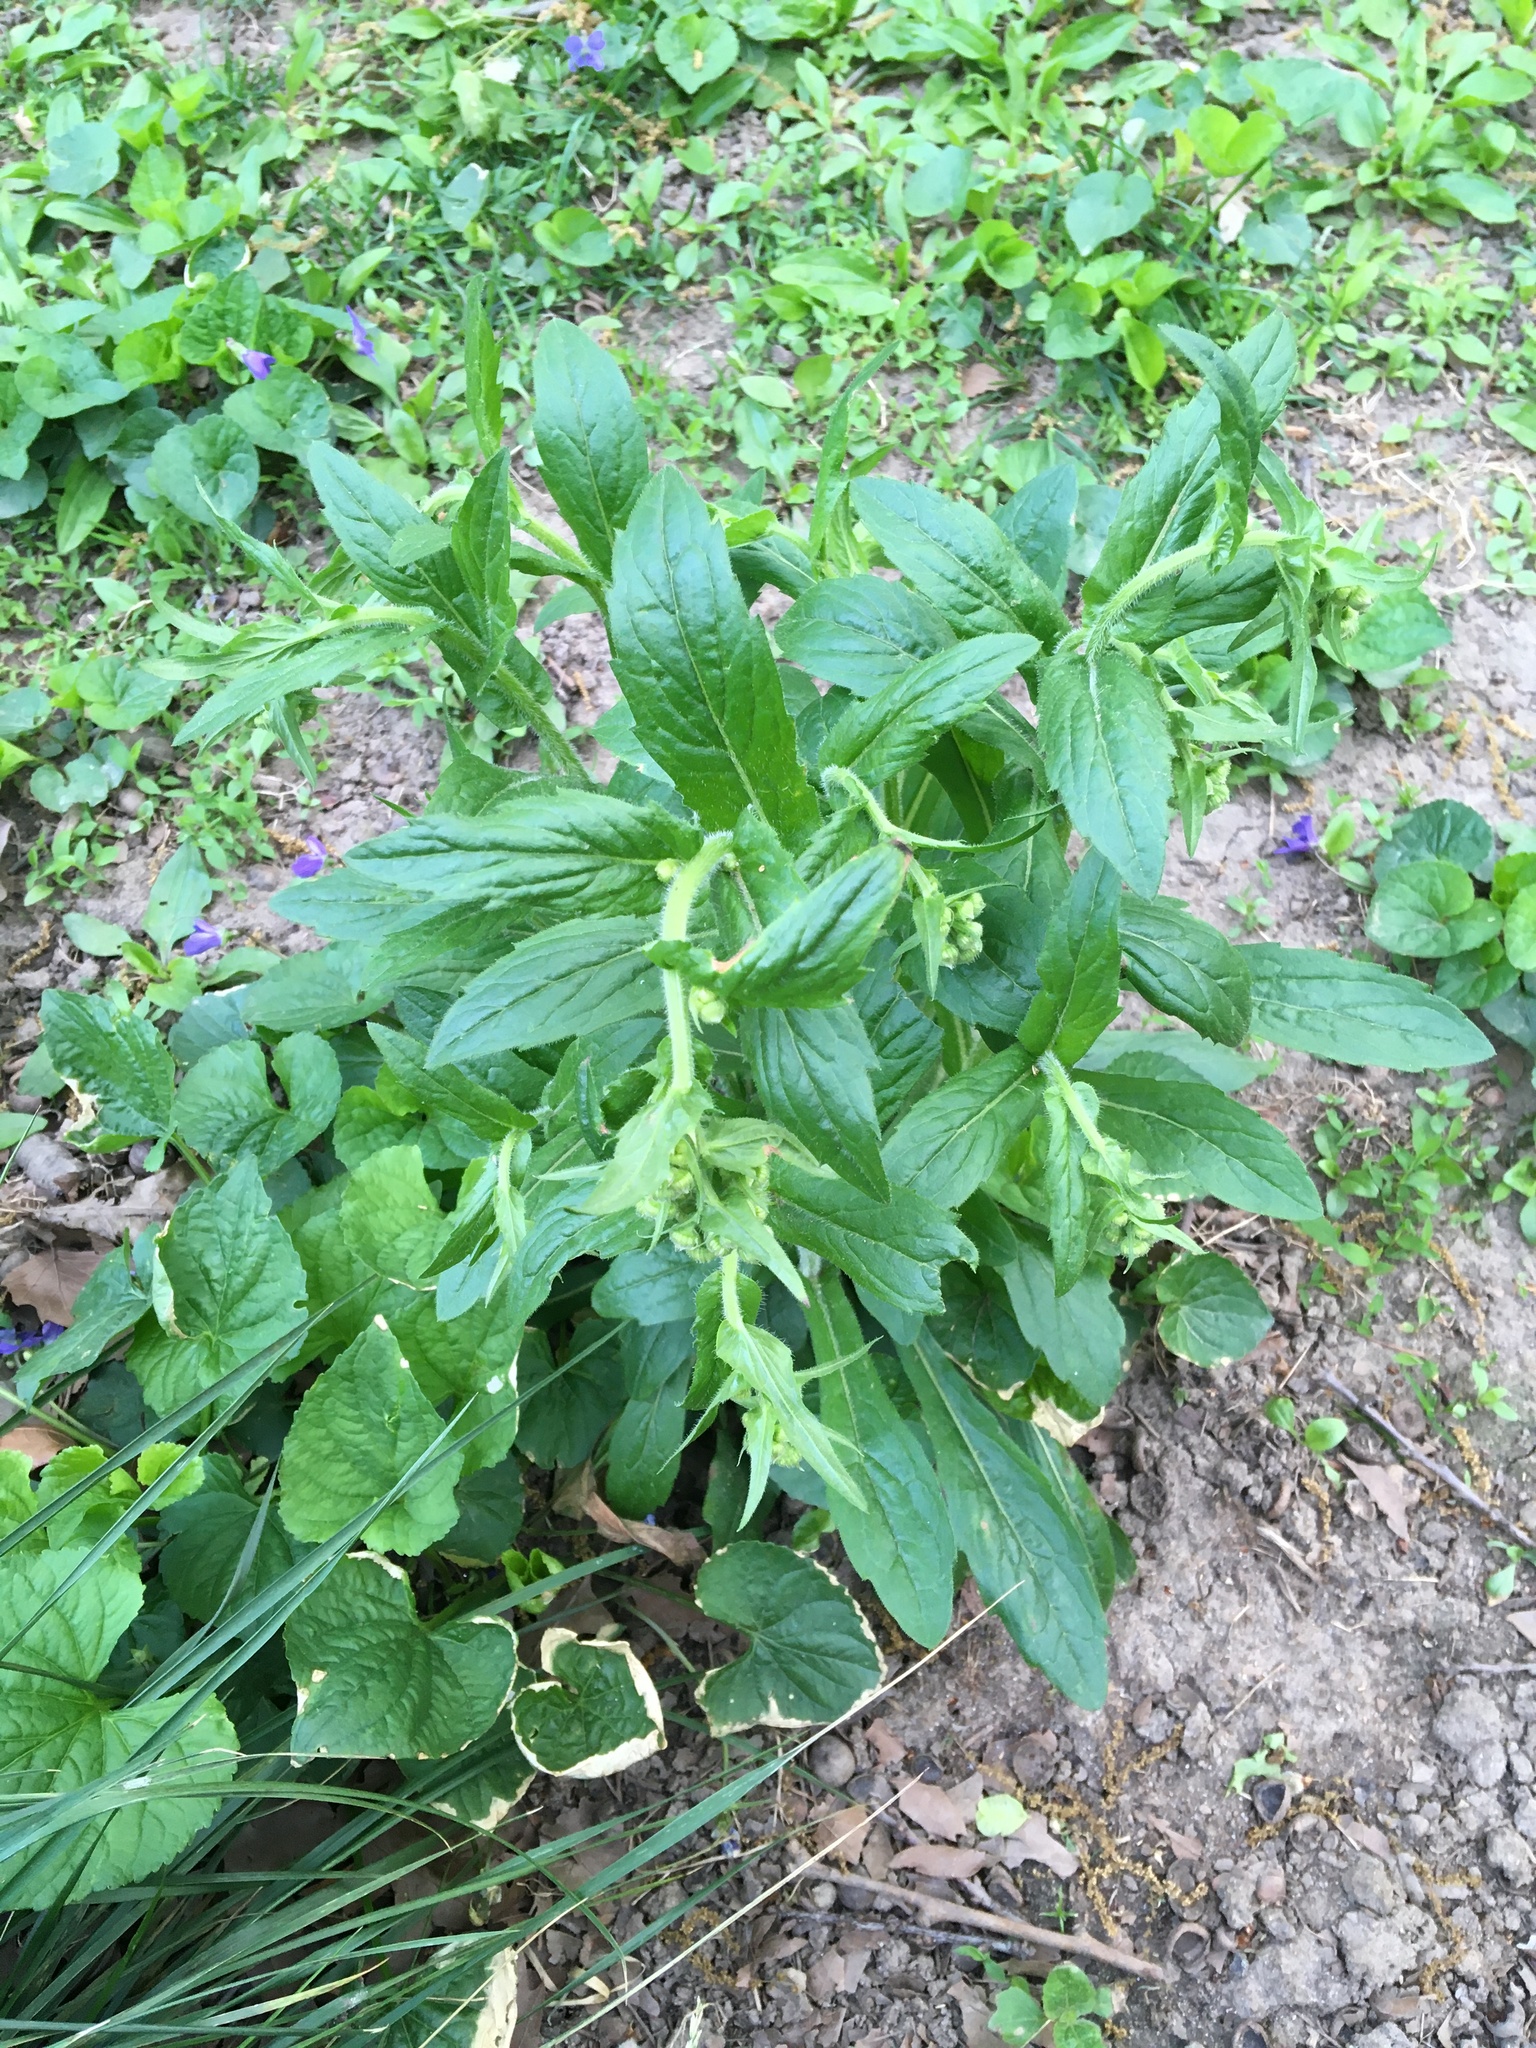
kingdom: Plantae
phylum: Tracheophyta
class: Magnoliopsida
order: Asterales
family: Asteraceae
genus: Erigeron
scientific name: Erigeron philadelphicus
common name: Robin's-plantain
